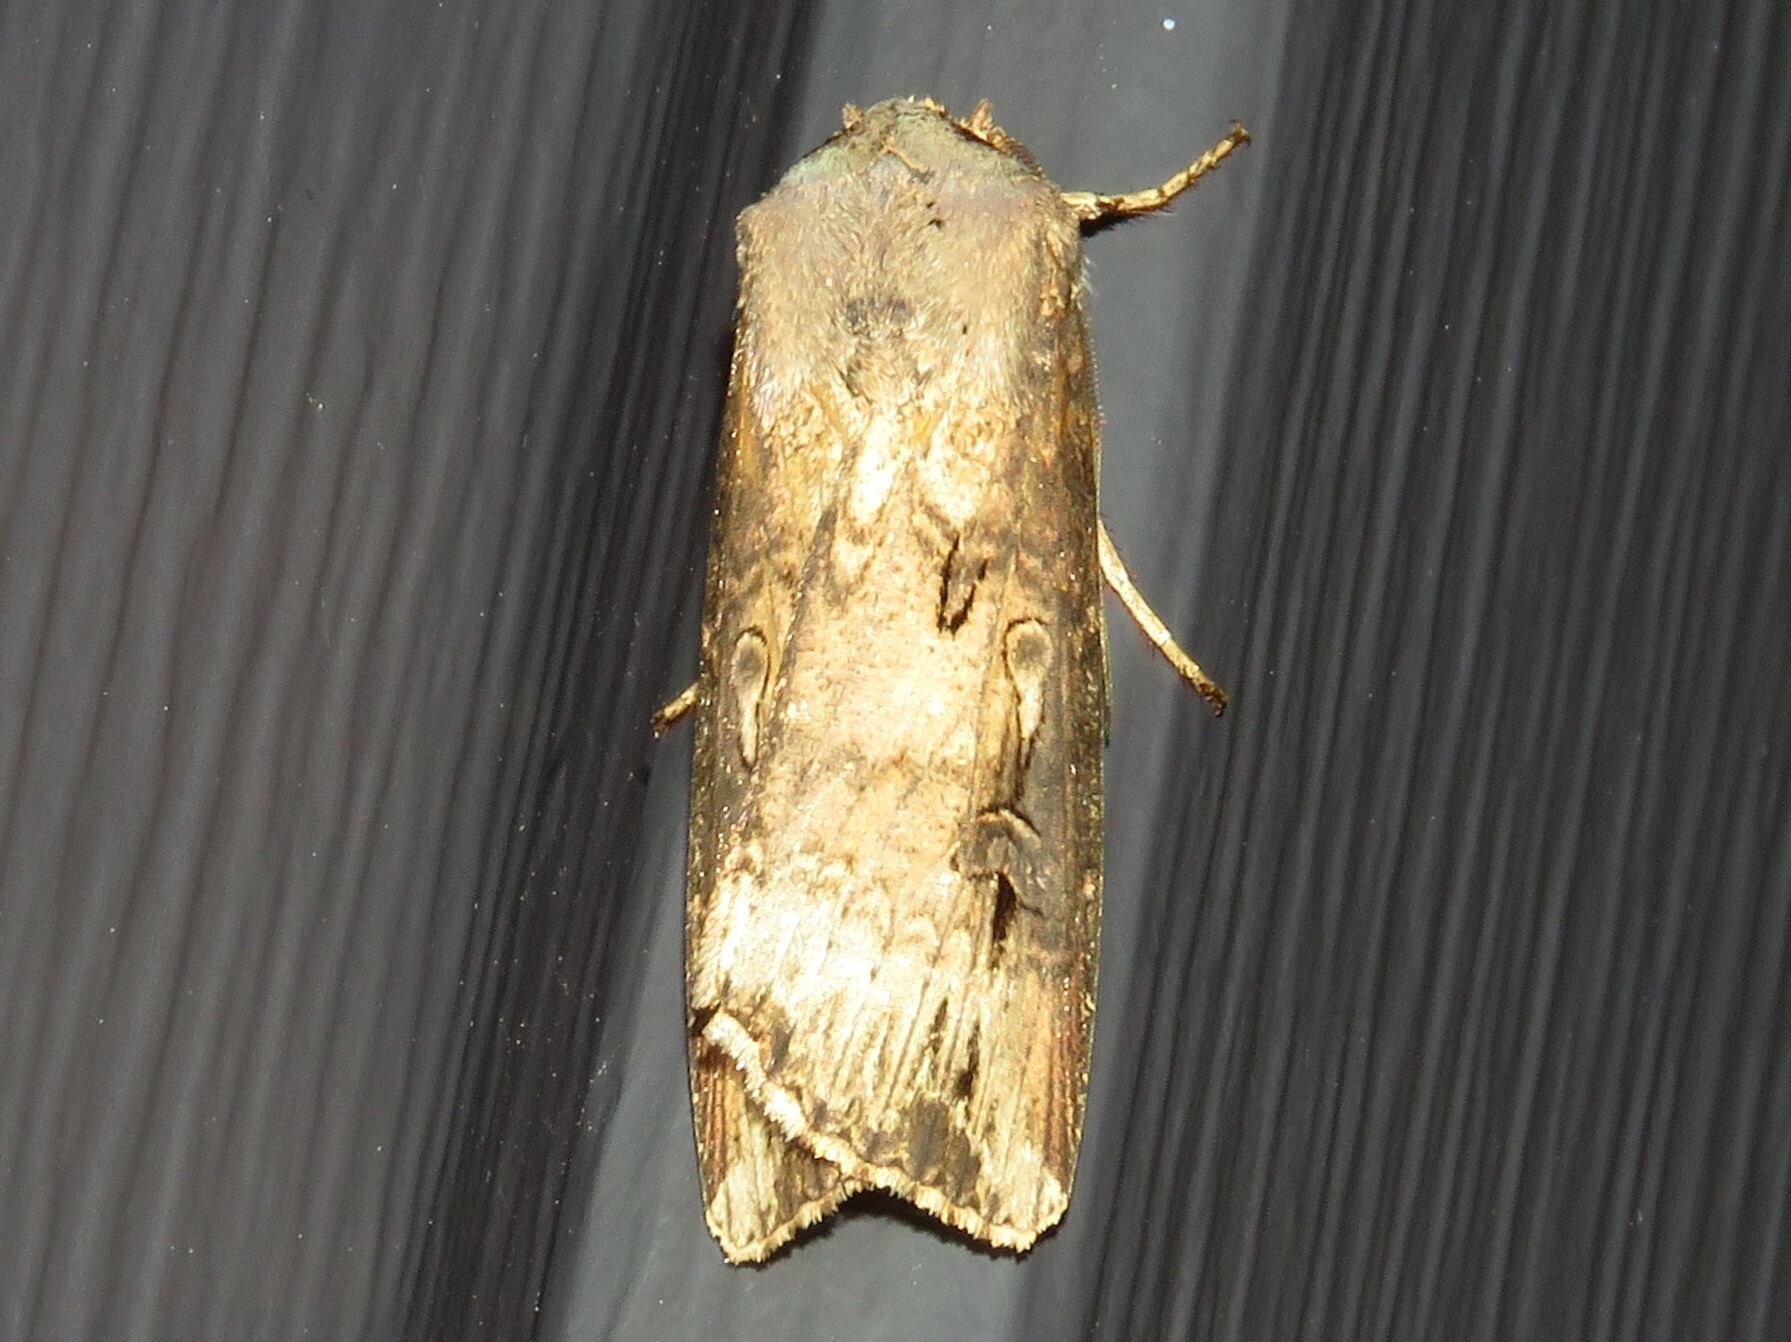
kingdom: Animalia
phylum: Arthropoda
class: Insecta
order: Lepidoptera
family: Noctuidae
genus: Agrotis
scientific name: Agrotis ipsilon
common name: Dark sword-grass
